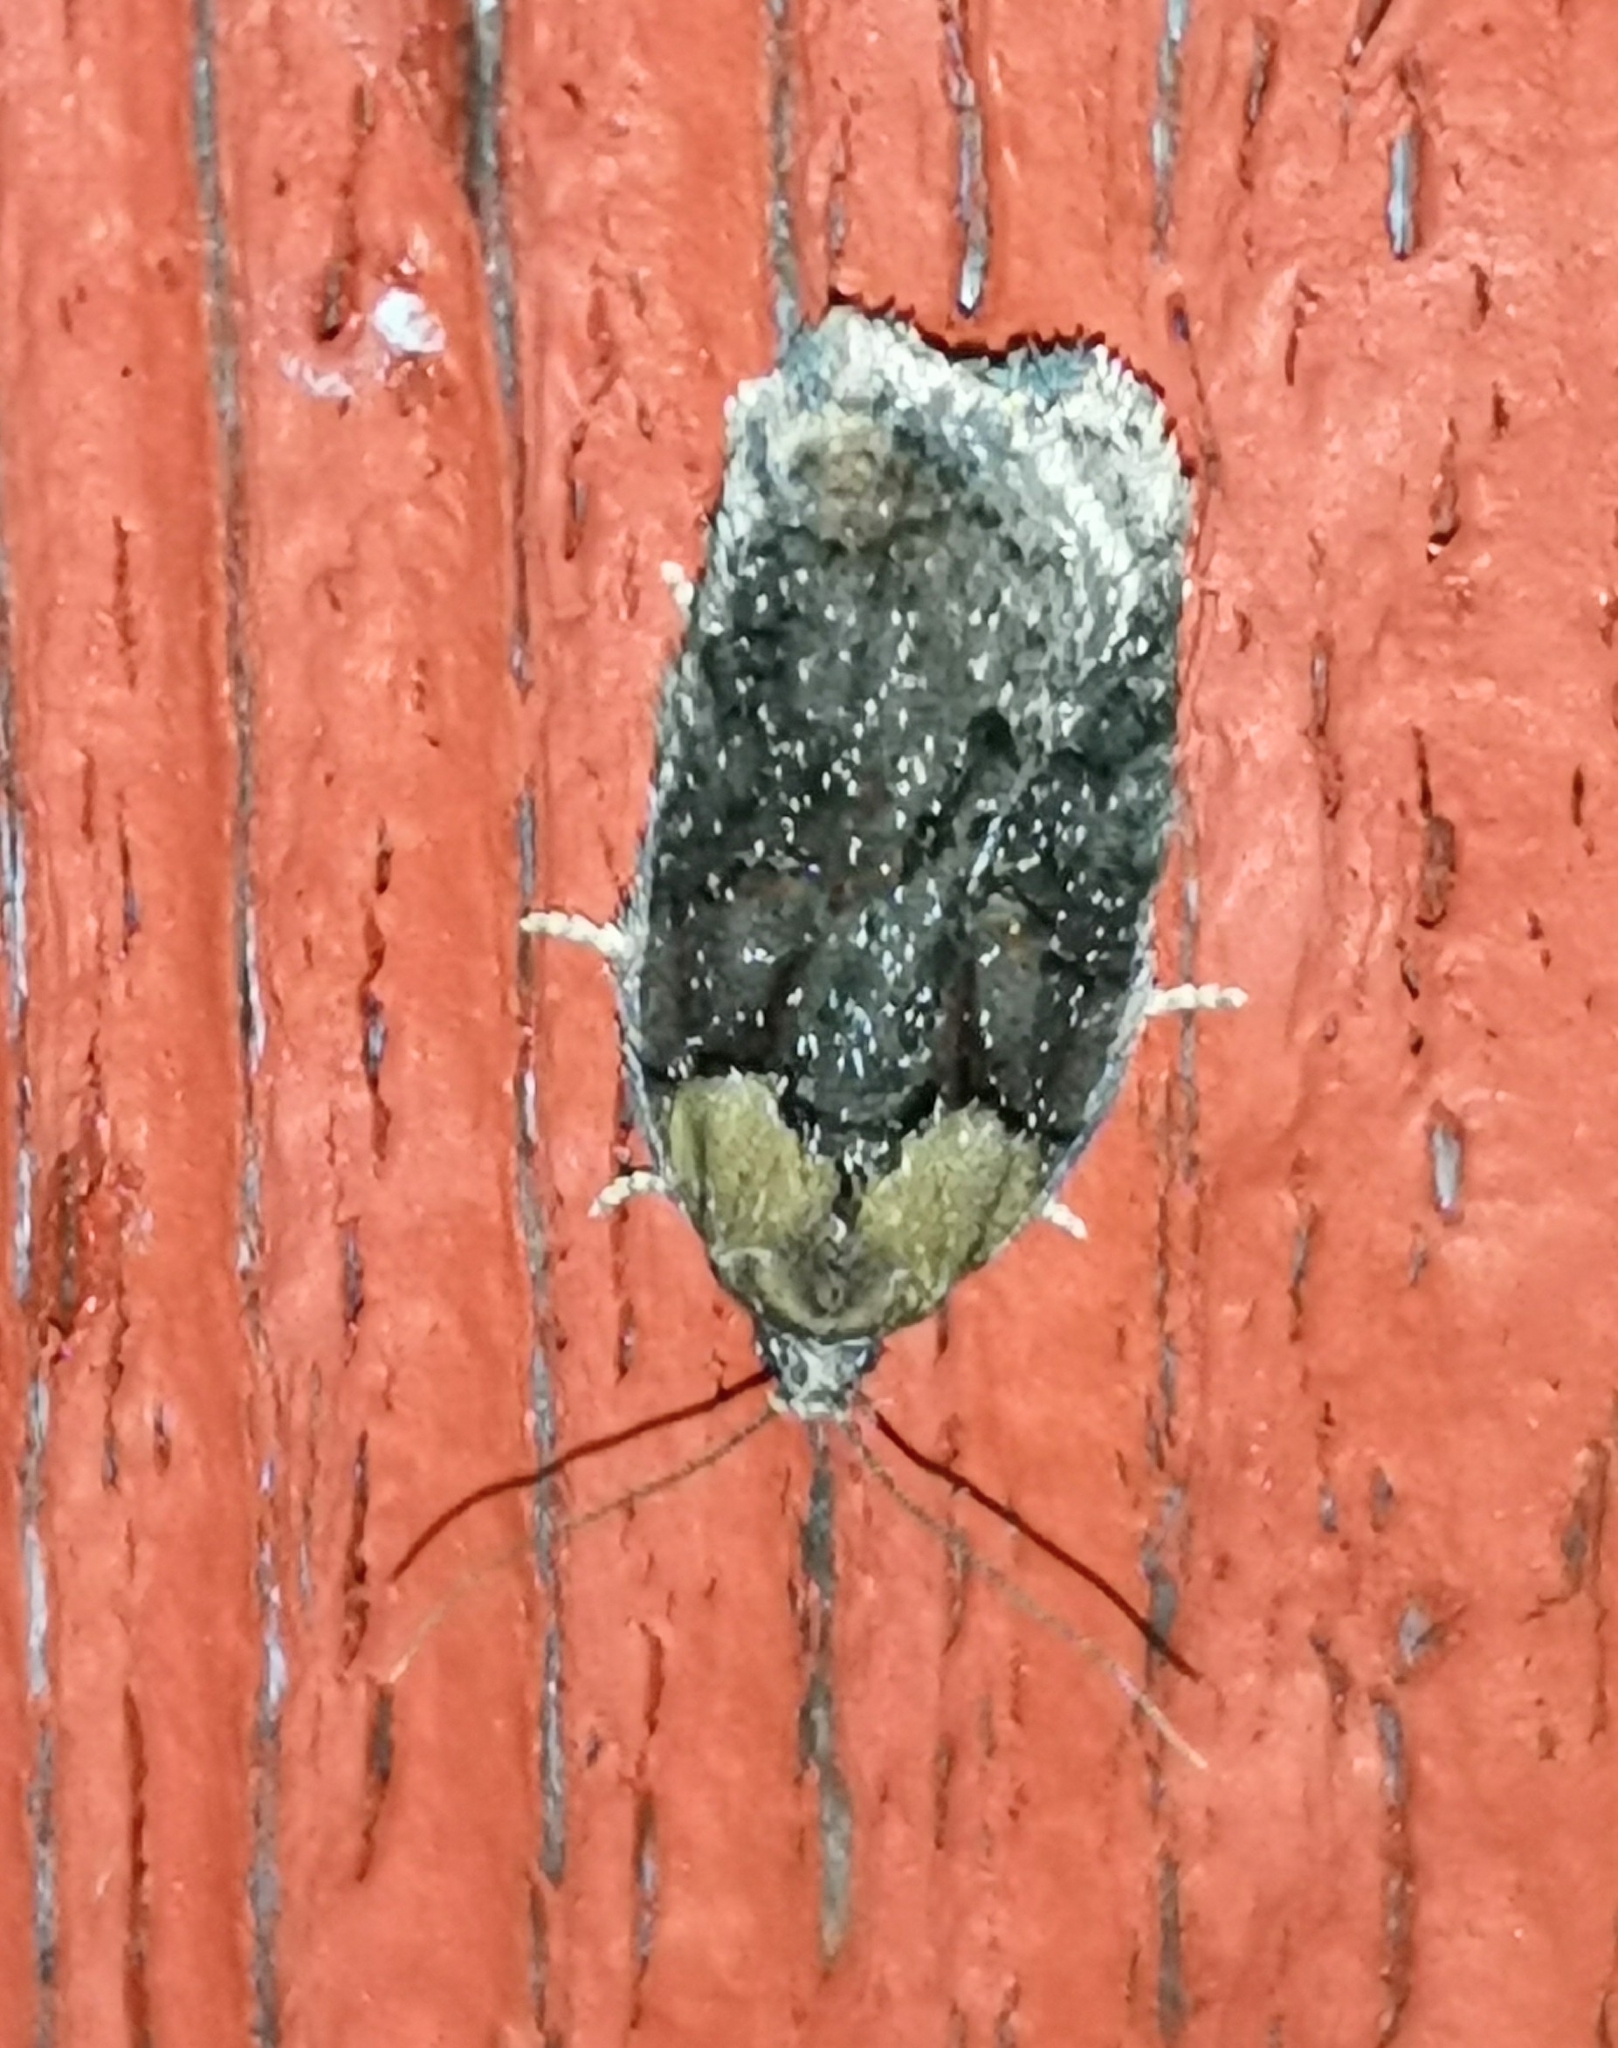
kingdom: Animalia
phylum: Arthropoda
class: Insecta
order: Lepidoptera
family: Tortricidae
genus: Acleris
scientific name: Acleris abietana
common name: Perth button
